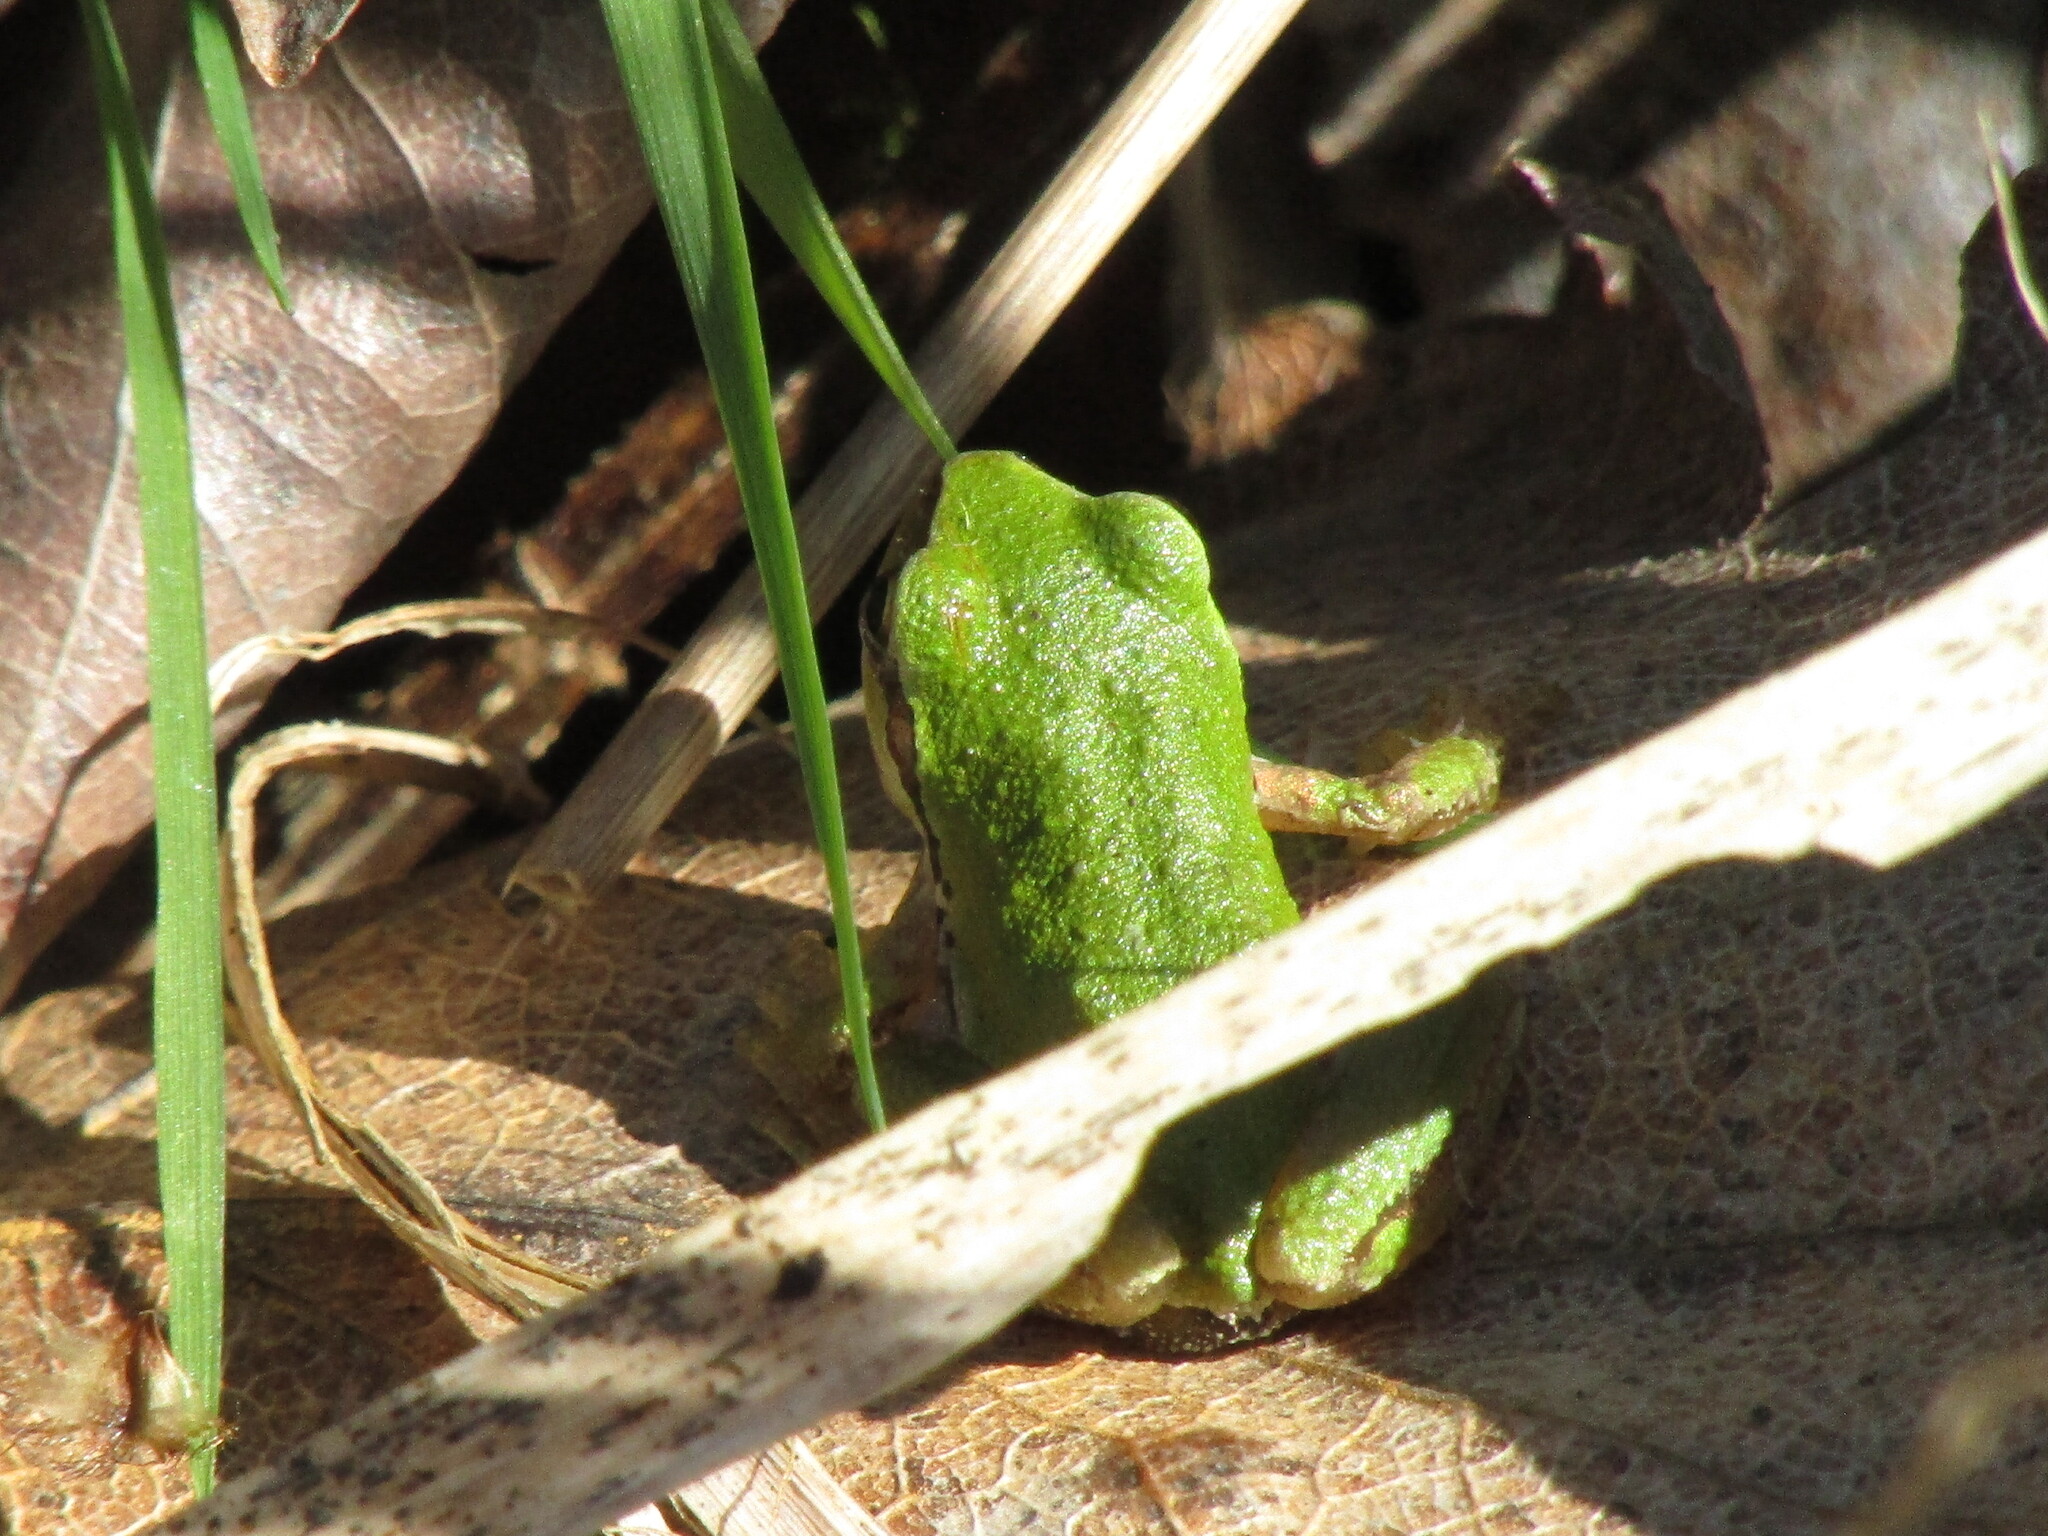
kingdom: Animalia
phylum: Chordata
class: Amphibia
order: Anura
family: Hylidae
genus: Pseudacris
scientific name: Pseudacris regilla
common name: Pacific chorus frog
